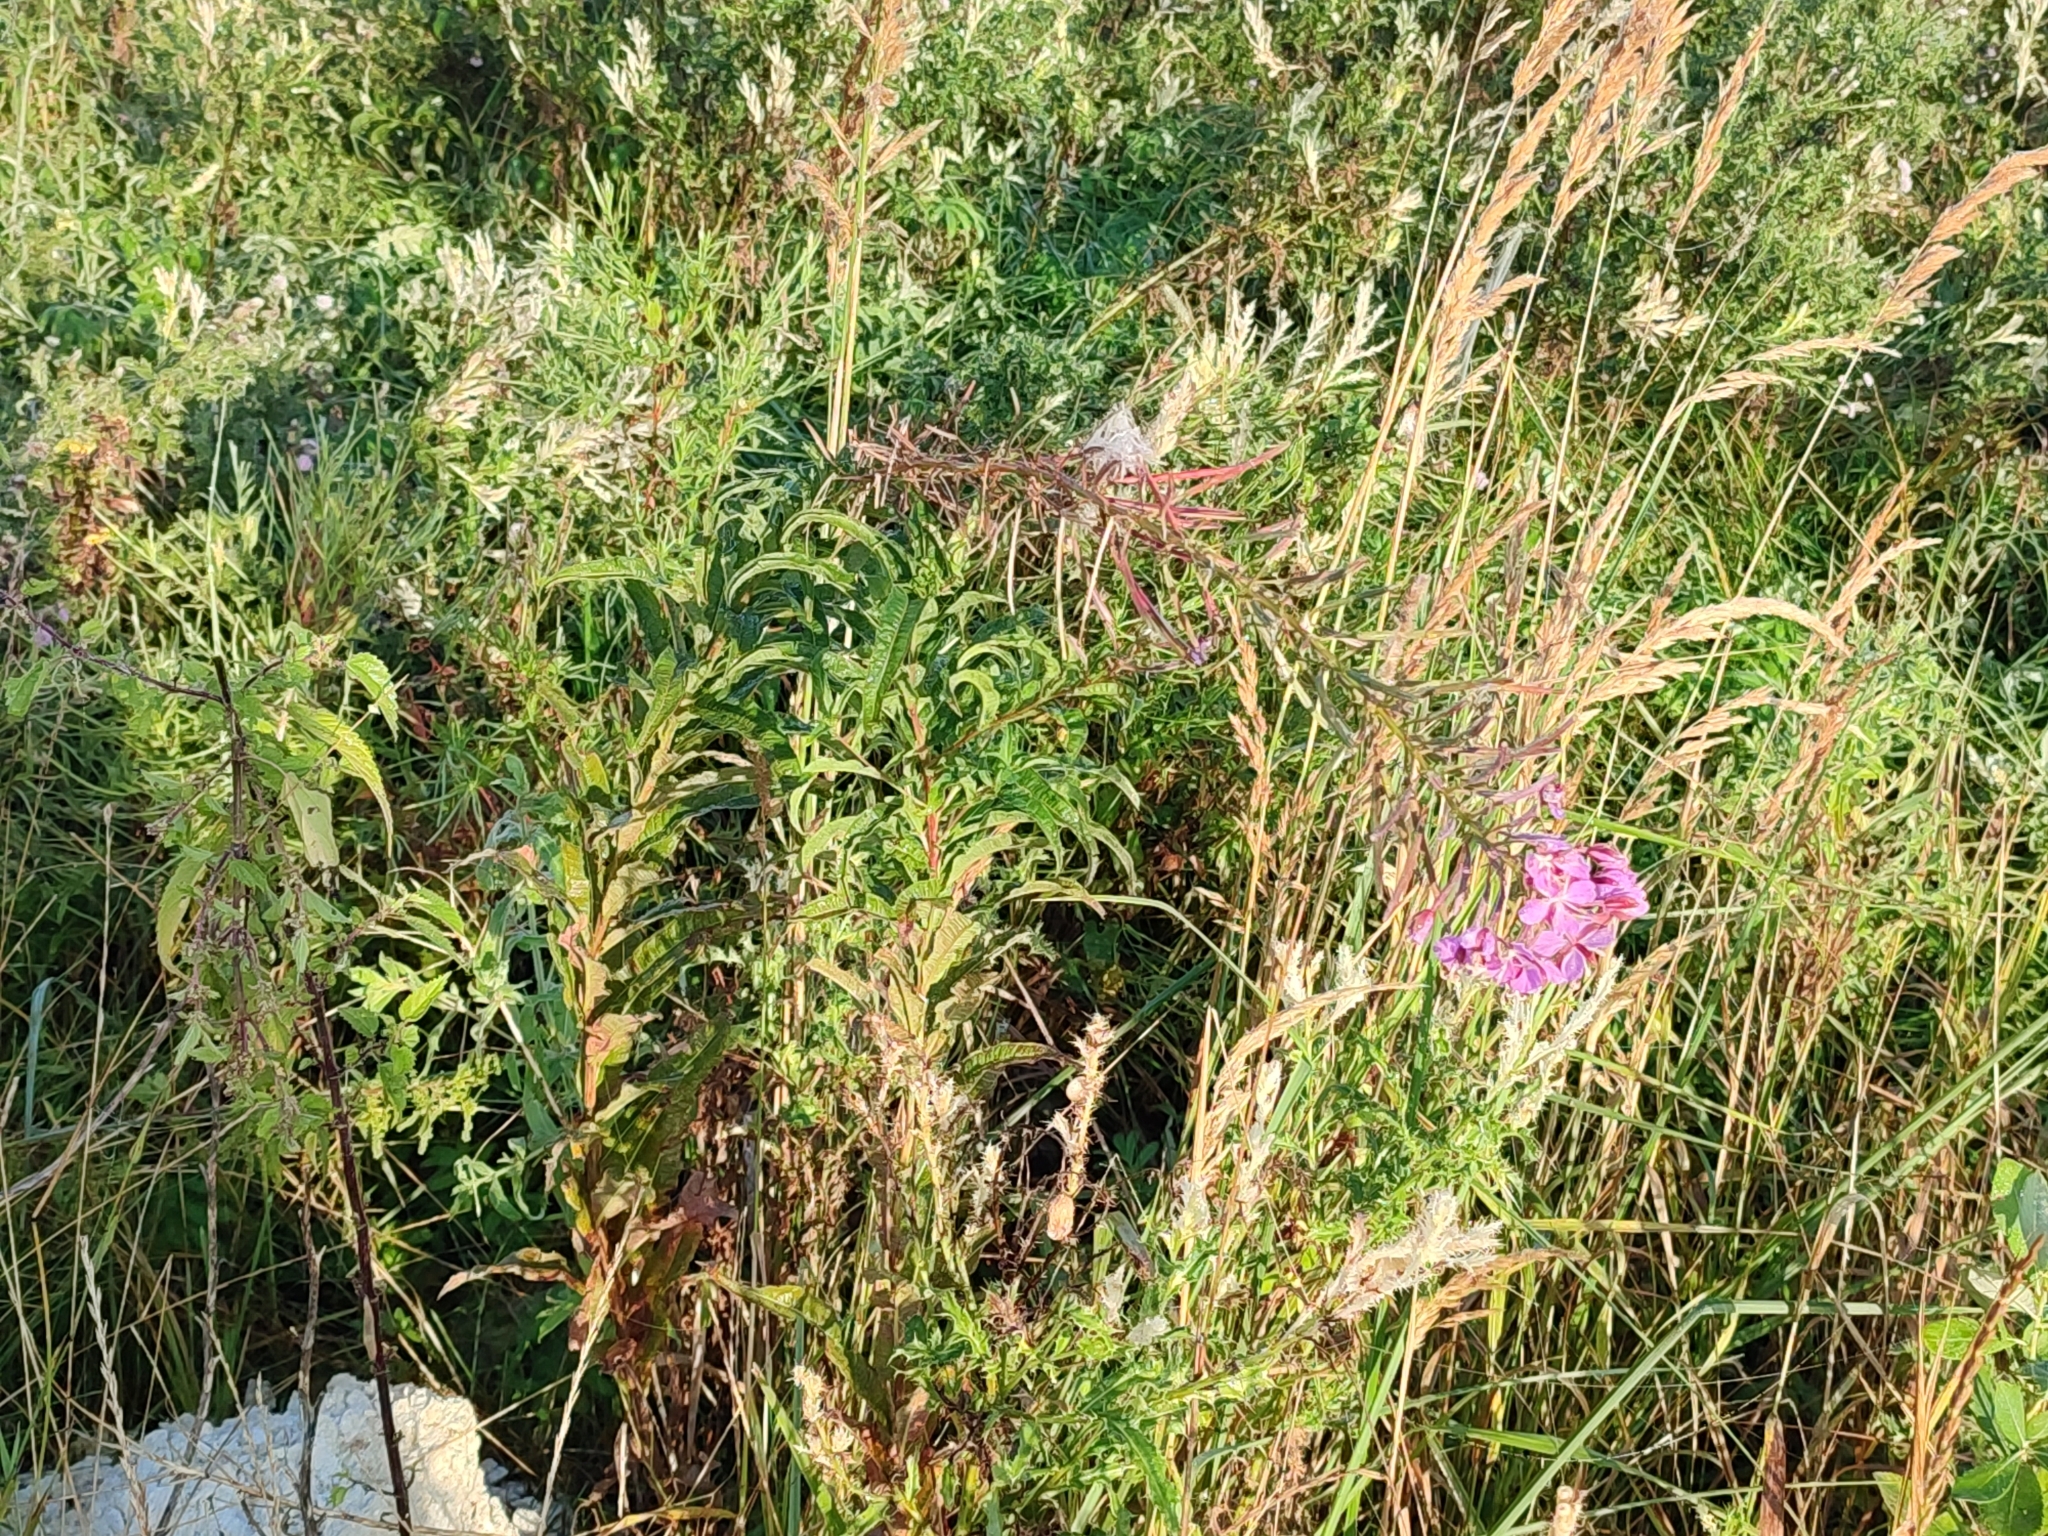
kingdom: Plantae
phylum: Tracheophyta
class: Magnoliopsida
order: Myrtales
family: Onagraceae
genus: Chamaenerion
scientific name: Chamaenerion angustifolium
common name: Fireweed
